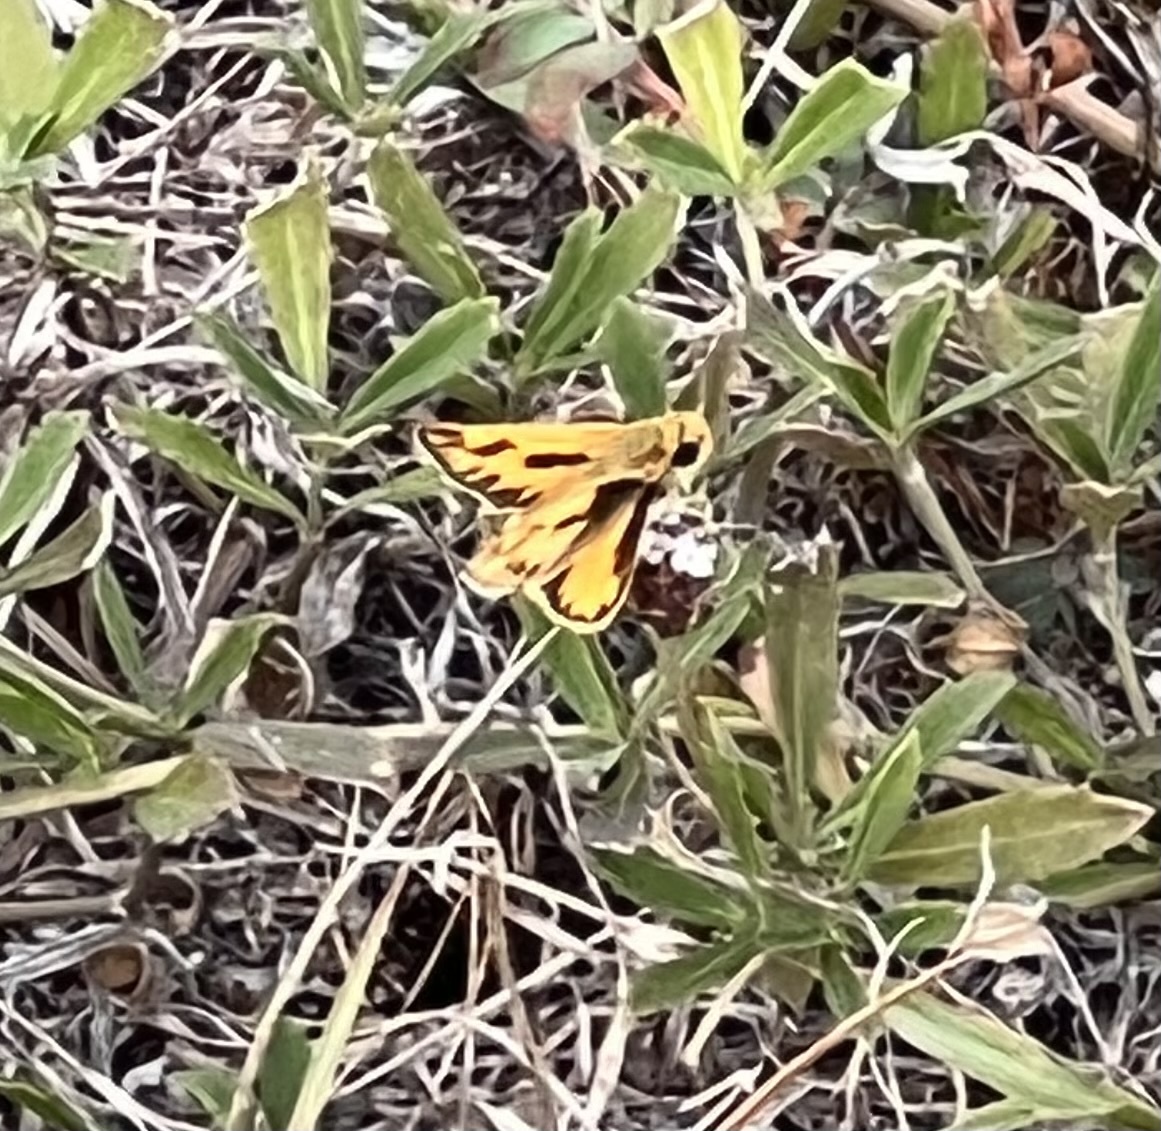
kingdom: Animalia
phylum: Arthropoda
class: Insecta
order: Lepidoptera
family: Hesperiidae
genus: Hylephila
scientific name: Hylephila phyleus
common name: Fiery skipper
